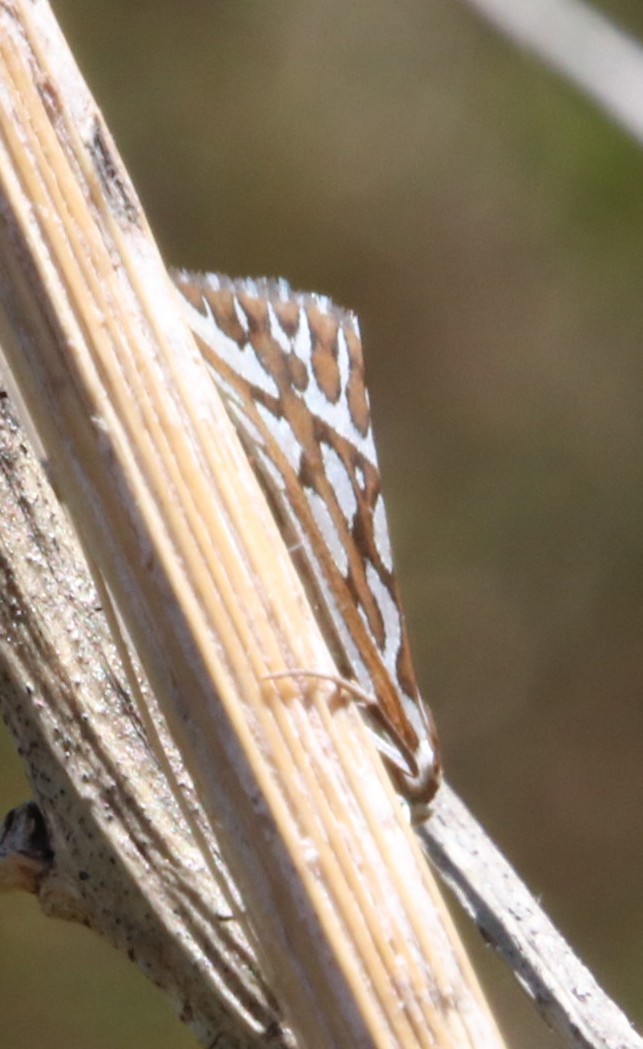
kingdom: Animalia
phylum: Arthropoda
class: Insecta
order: Lepidoptera
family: Geometridae
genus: Argyrophora
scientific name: Argyrophora trofonia
